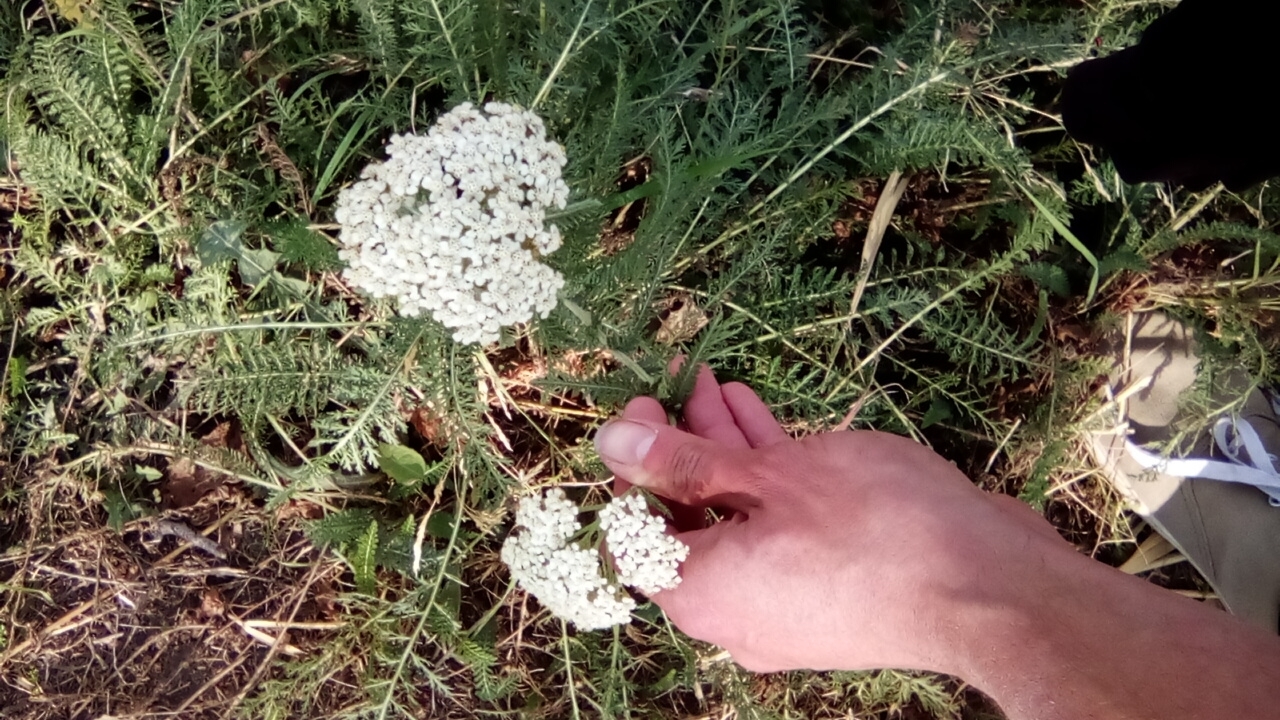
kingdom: Plantae
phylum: Tracheophyta
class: Magnoliopsida
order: Asterales
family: Asteraceae
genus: Achillea
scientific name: Achillea millefolium
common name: Yarrow
